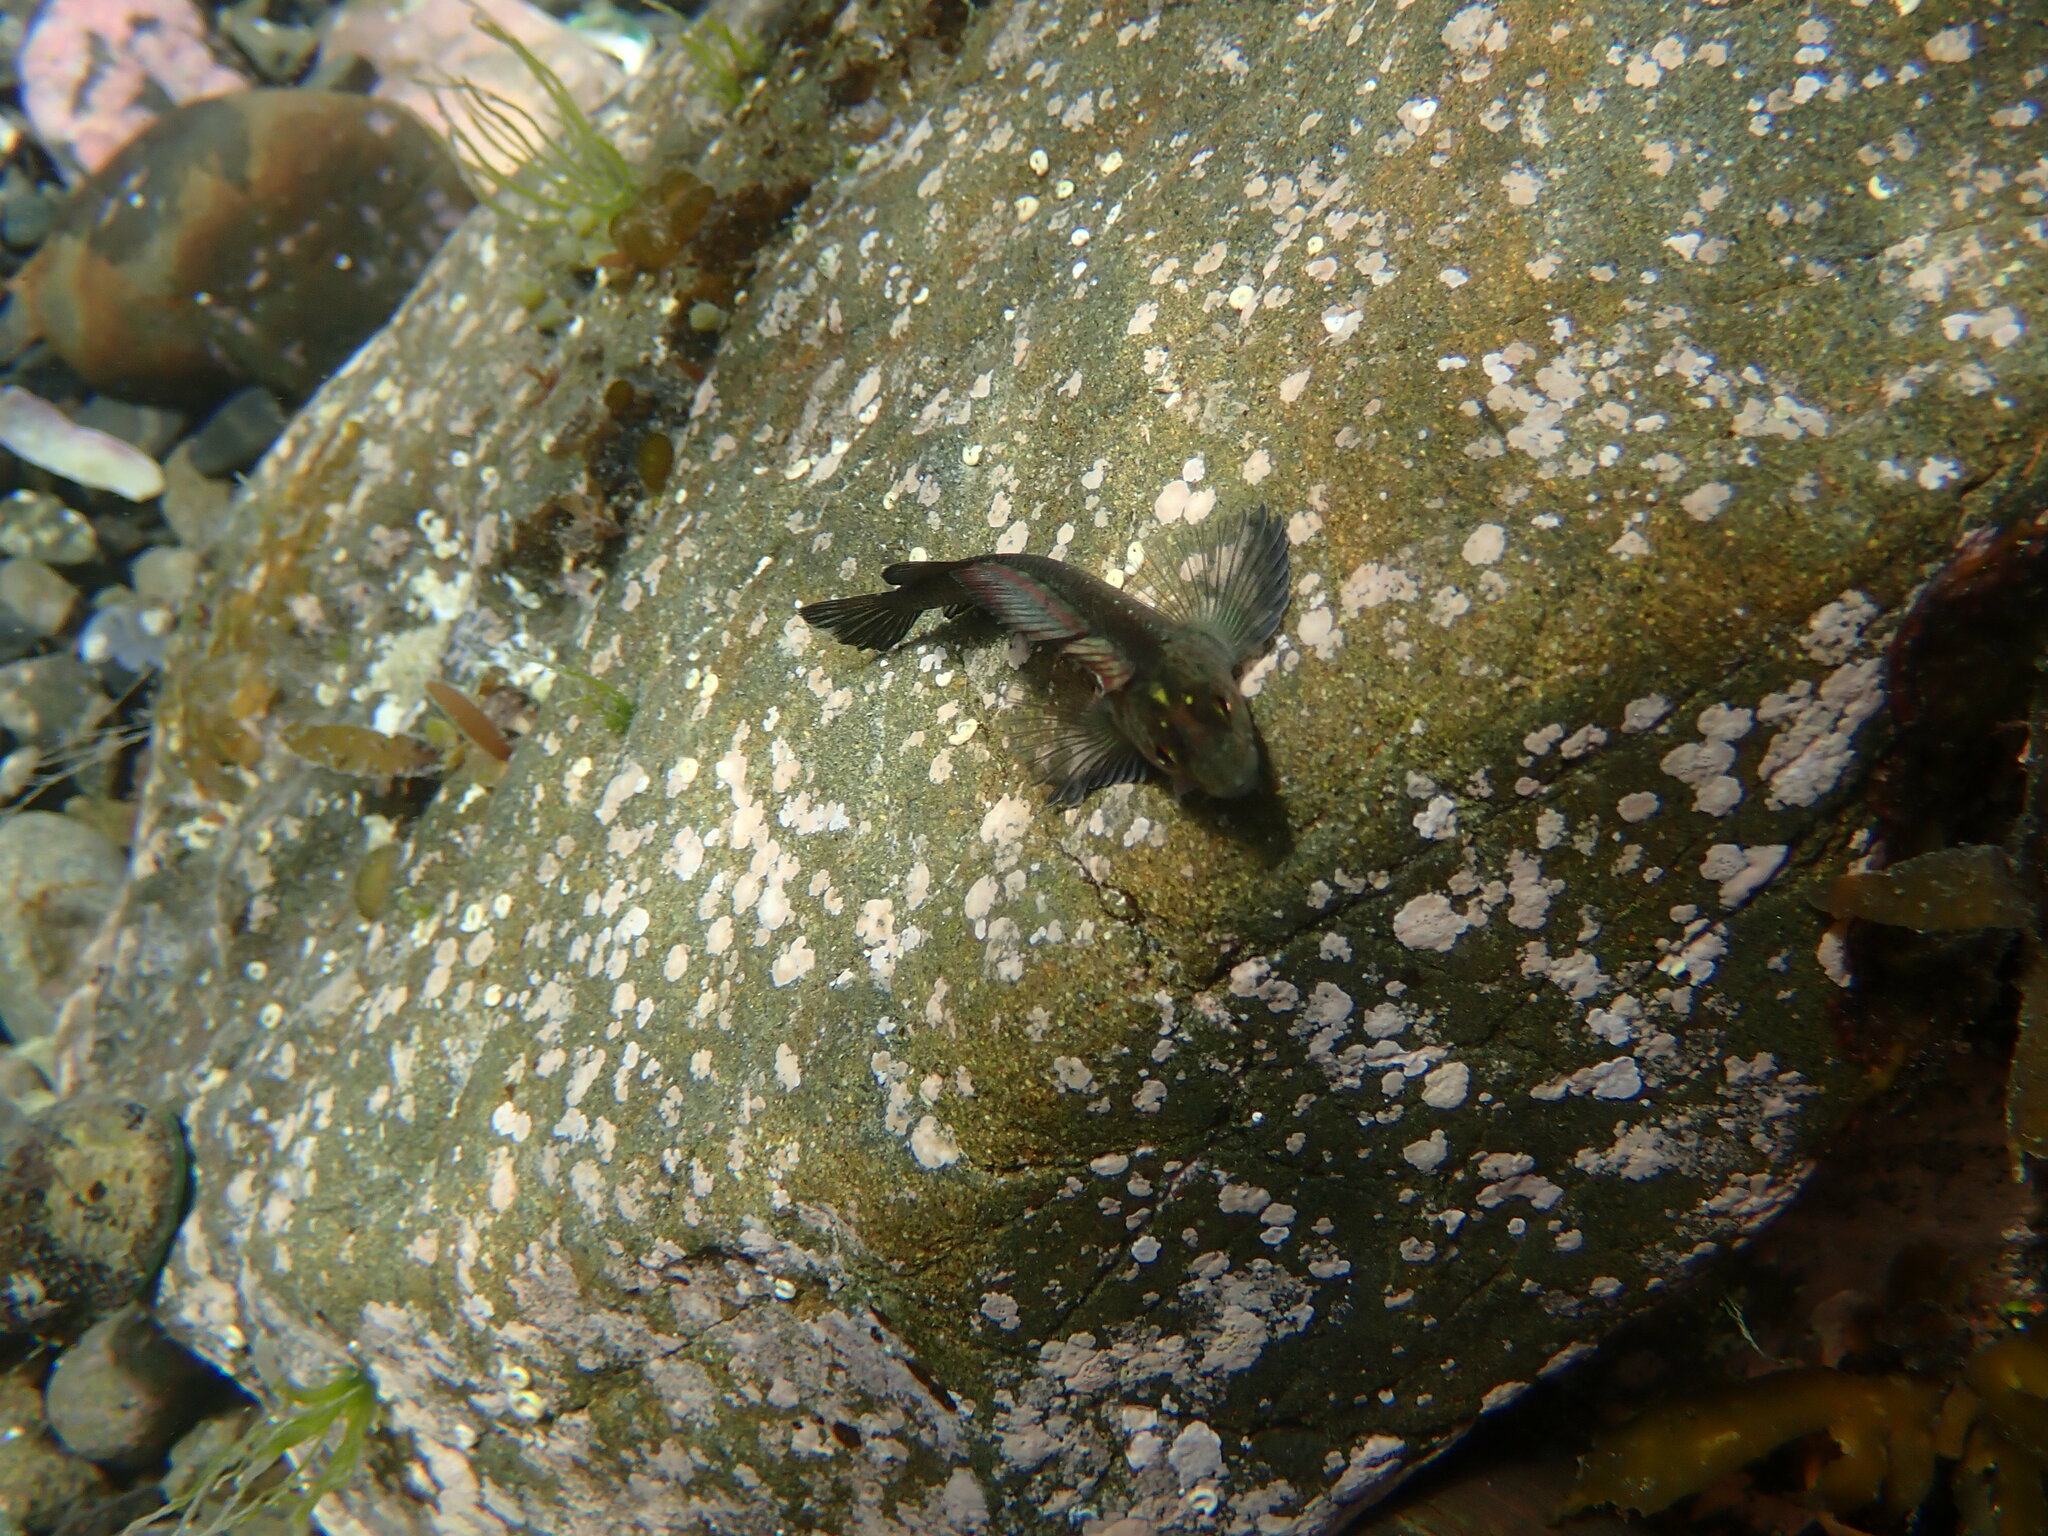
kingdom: Animalia
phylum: Chordata
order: Perciformes
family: Tripterygiidae
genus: Forsterygion
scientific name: Forsterygion lapillum
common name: Common triplefin
